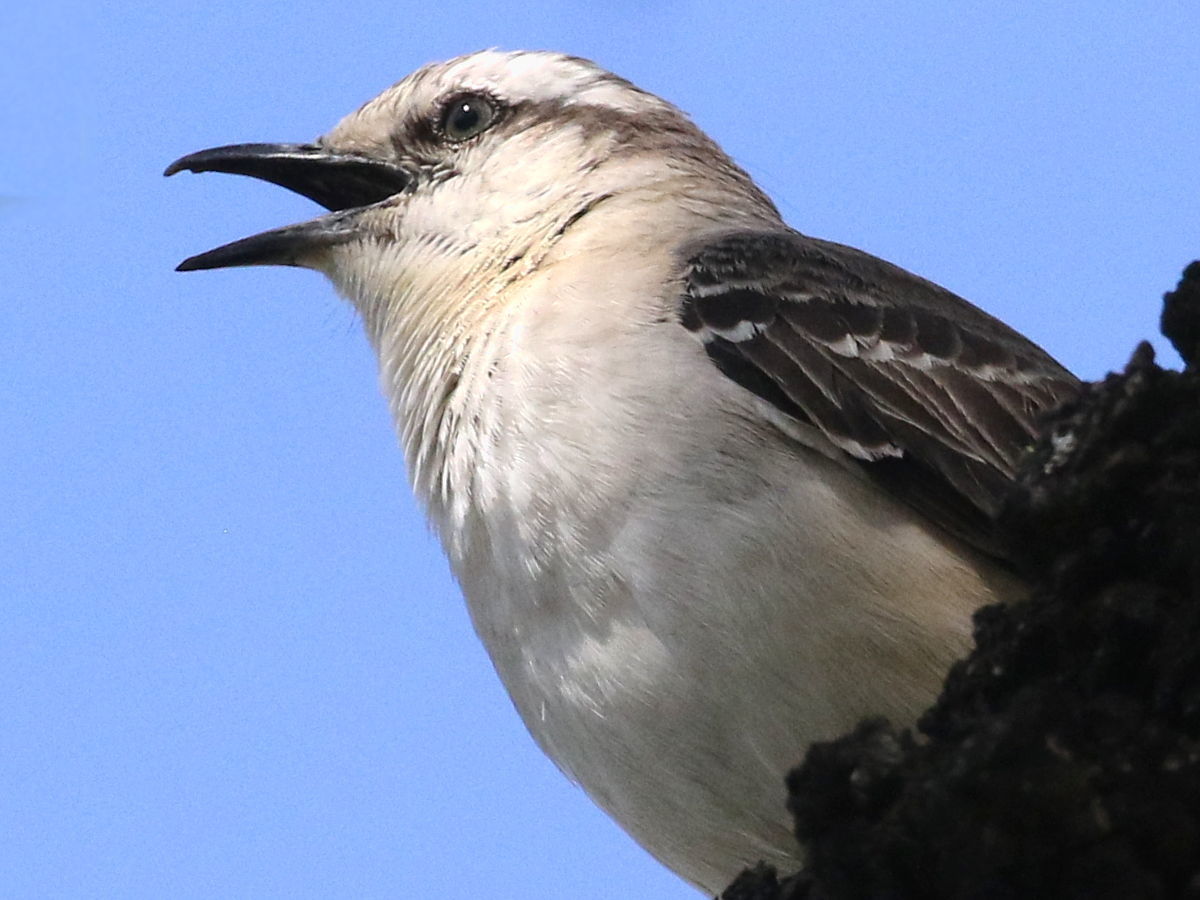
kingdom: Animalia
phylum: Chordata
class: Aves
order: Passeriformes
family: Mimidae
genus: Mimus
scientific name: Mimus saturninus
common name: Chalk-browed mockingbird
